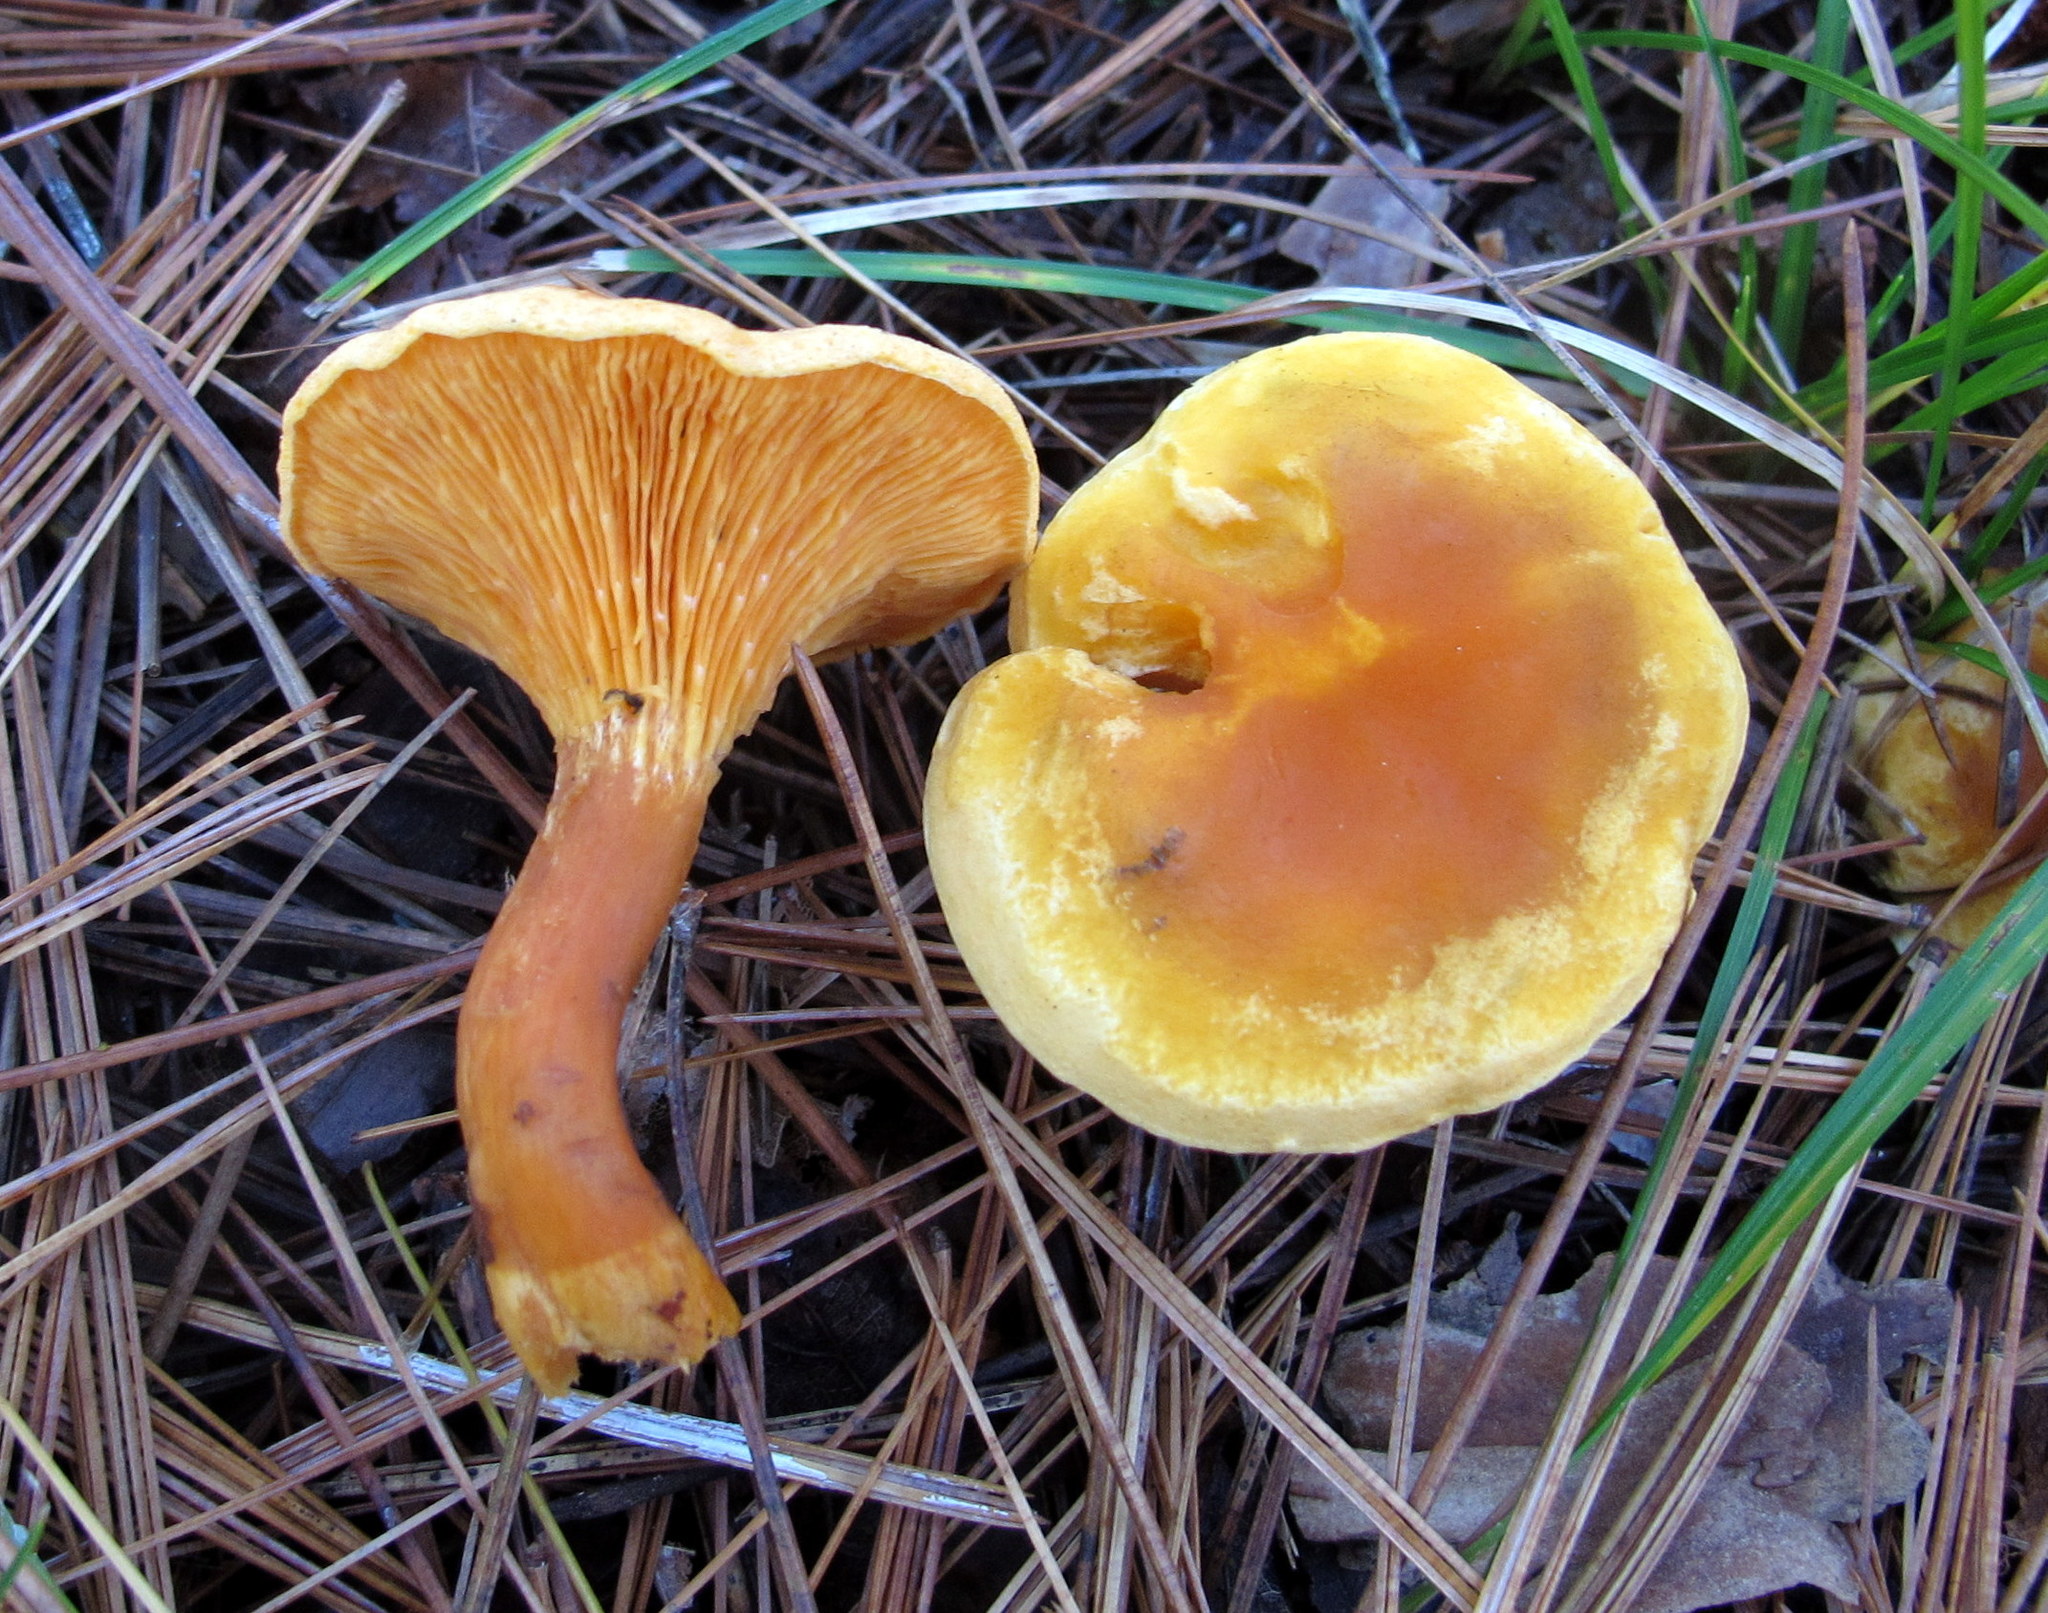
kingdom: Fungi
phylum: Basidiomycota
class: Agaricomycetes
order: Boletales
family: Hygrophoropsidaceae
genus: Hygrophoropsis
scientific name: Hygrophoropsis aurantiaca
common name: False chanterelle
